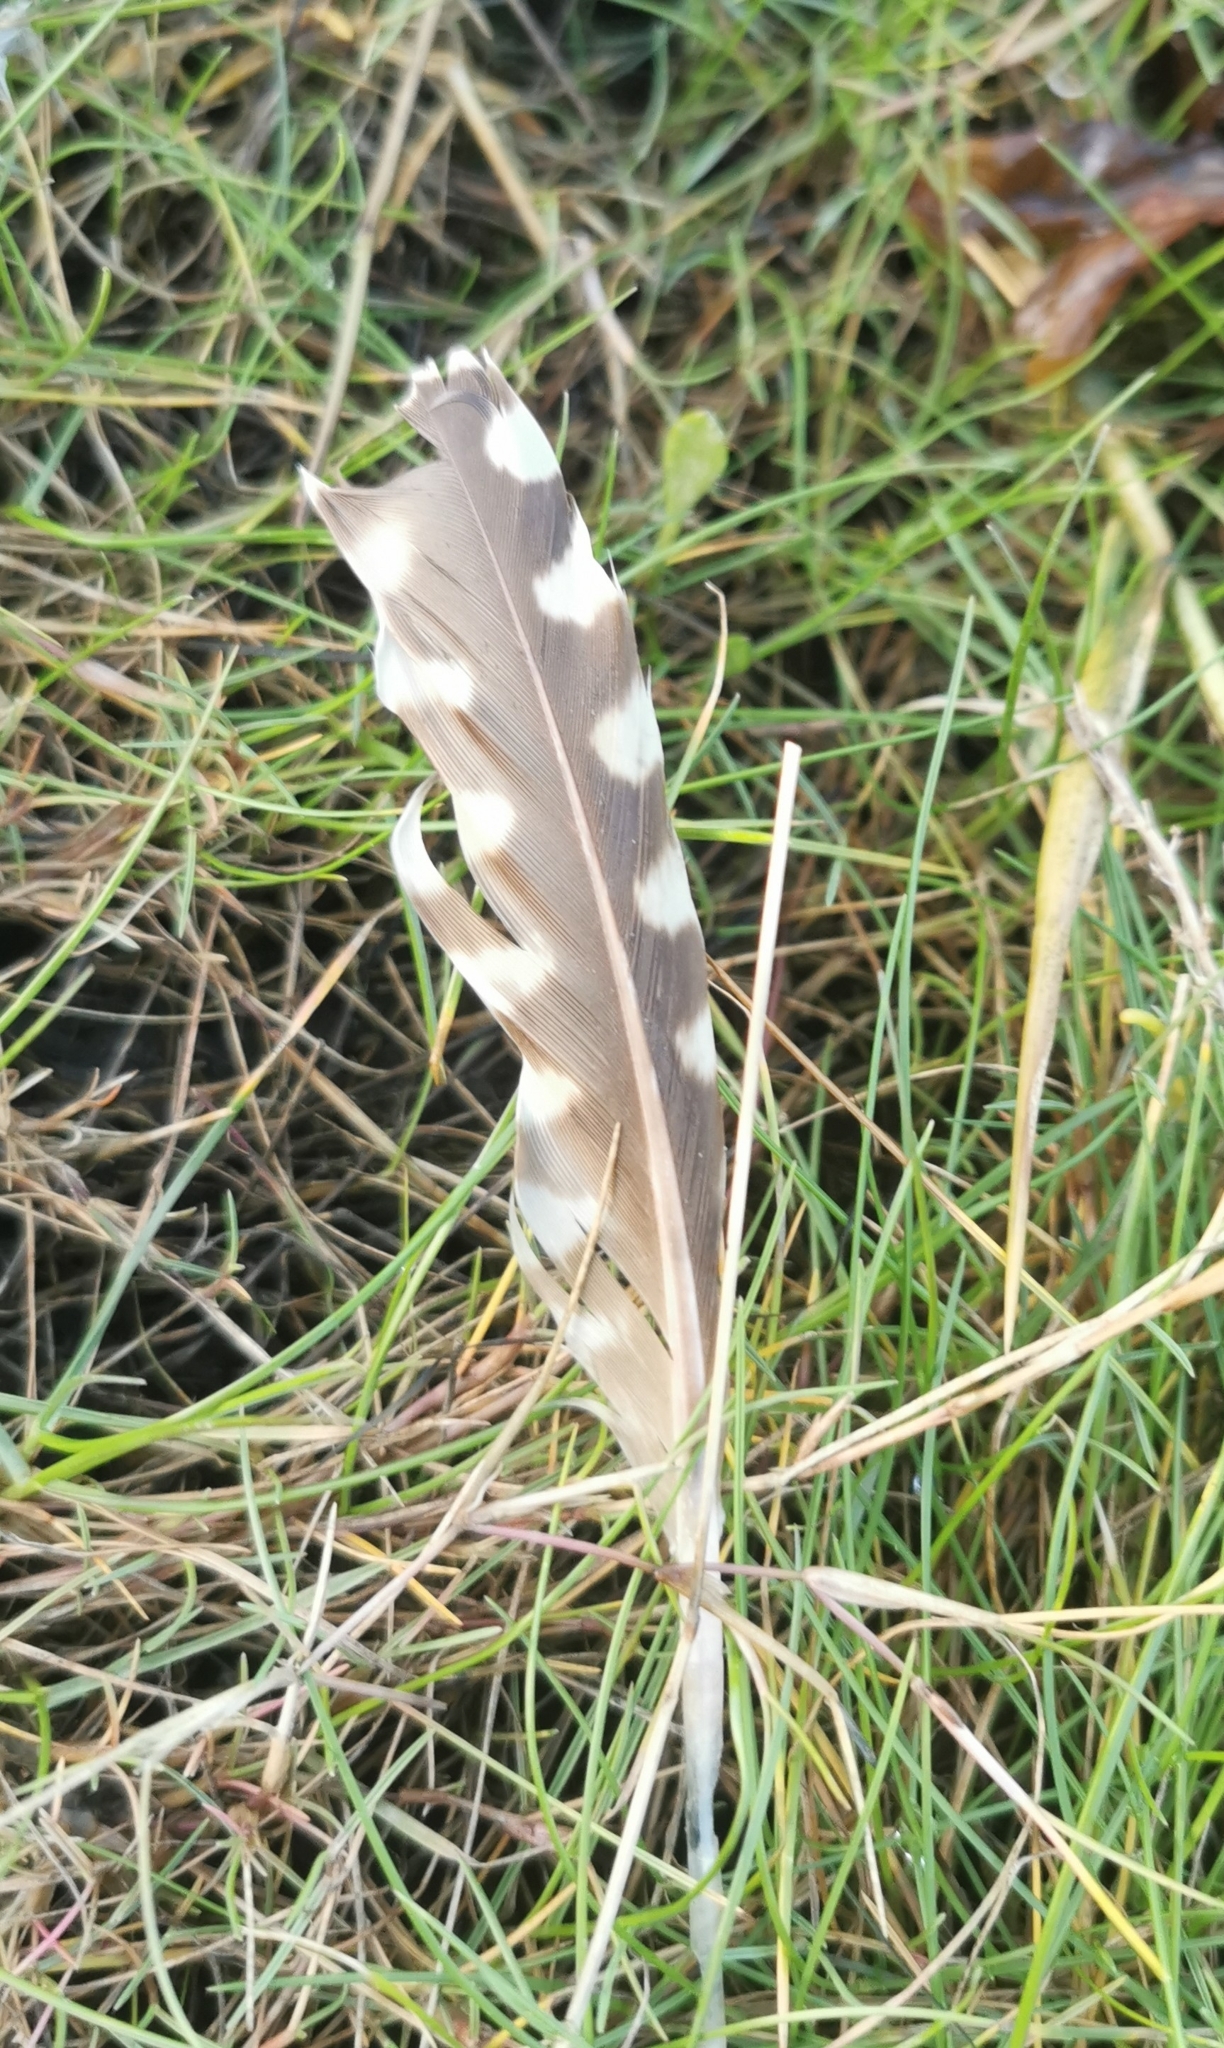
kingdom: Animalia
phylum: Chordata
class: Aves
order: Charadriiformes
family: Scolopacidae
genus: Numenius
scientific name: Numenius arquata
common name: Eurasian curlew
